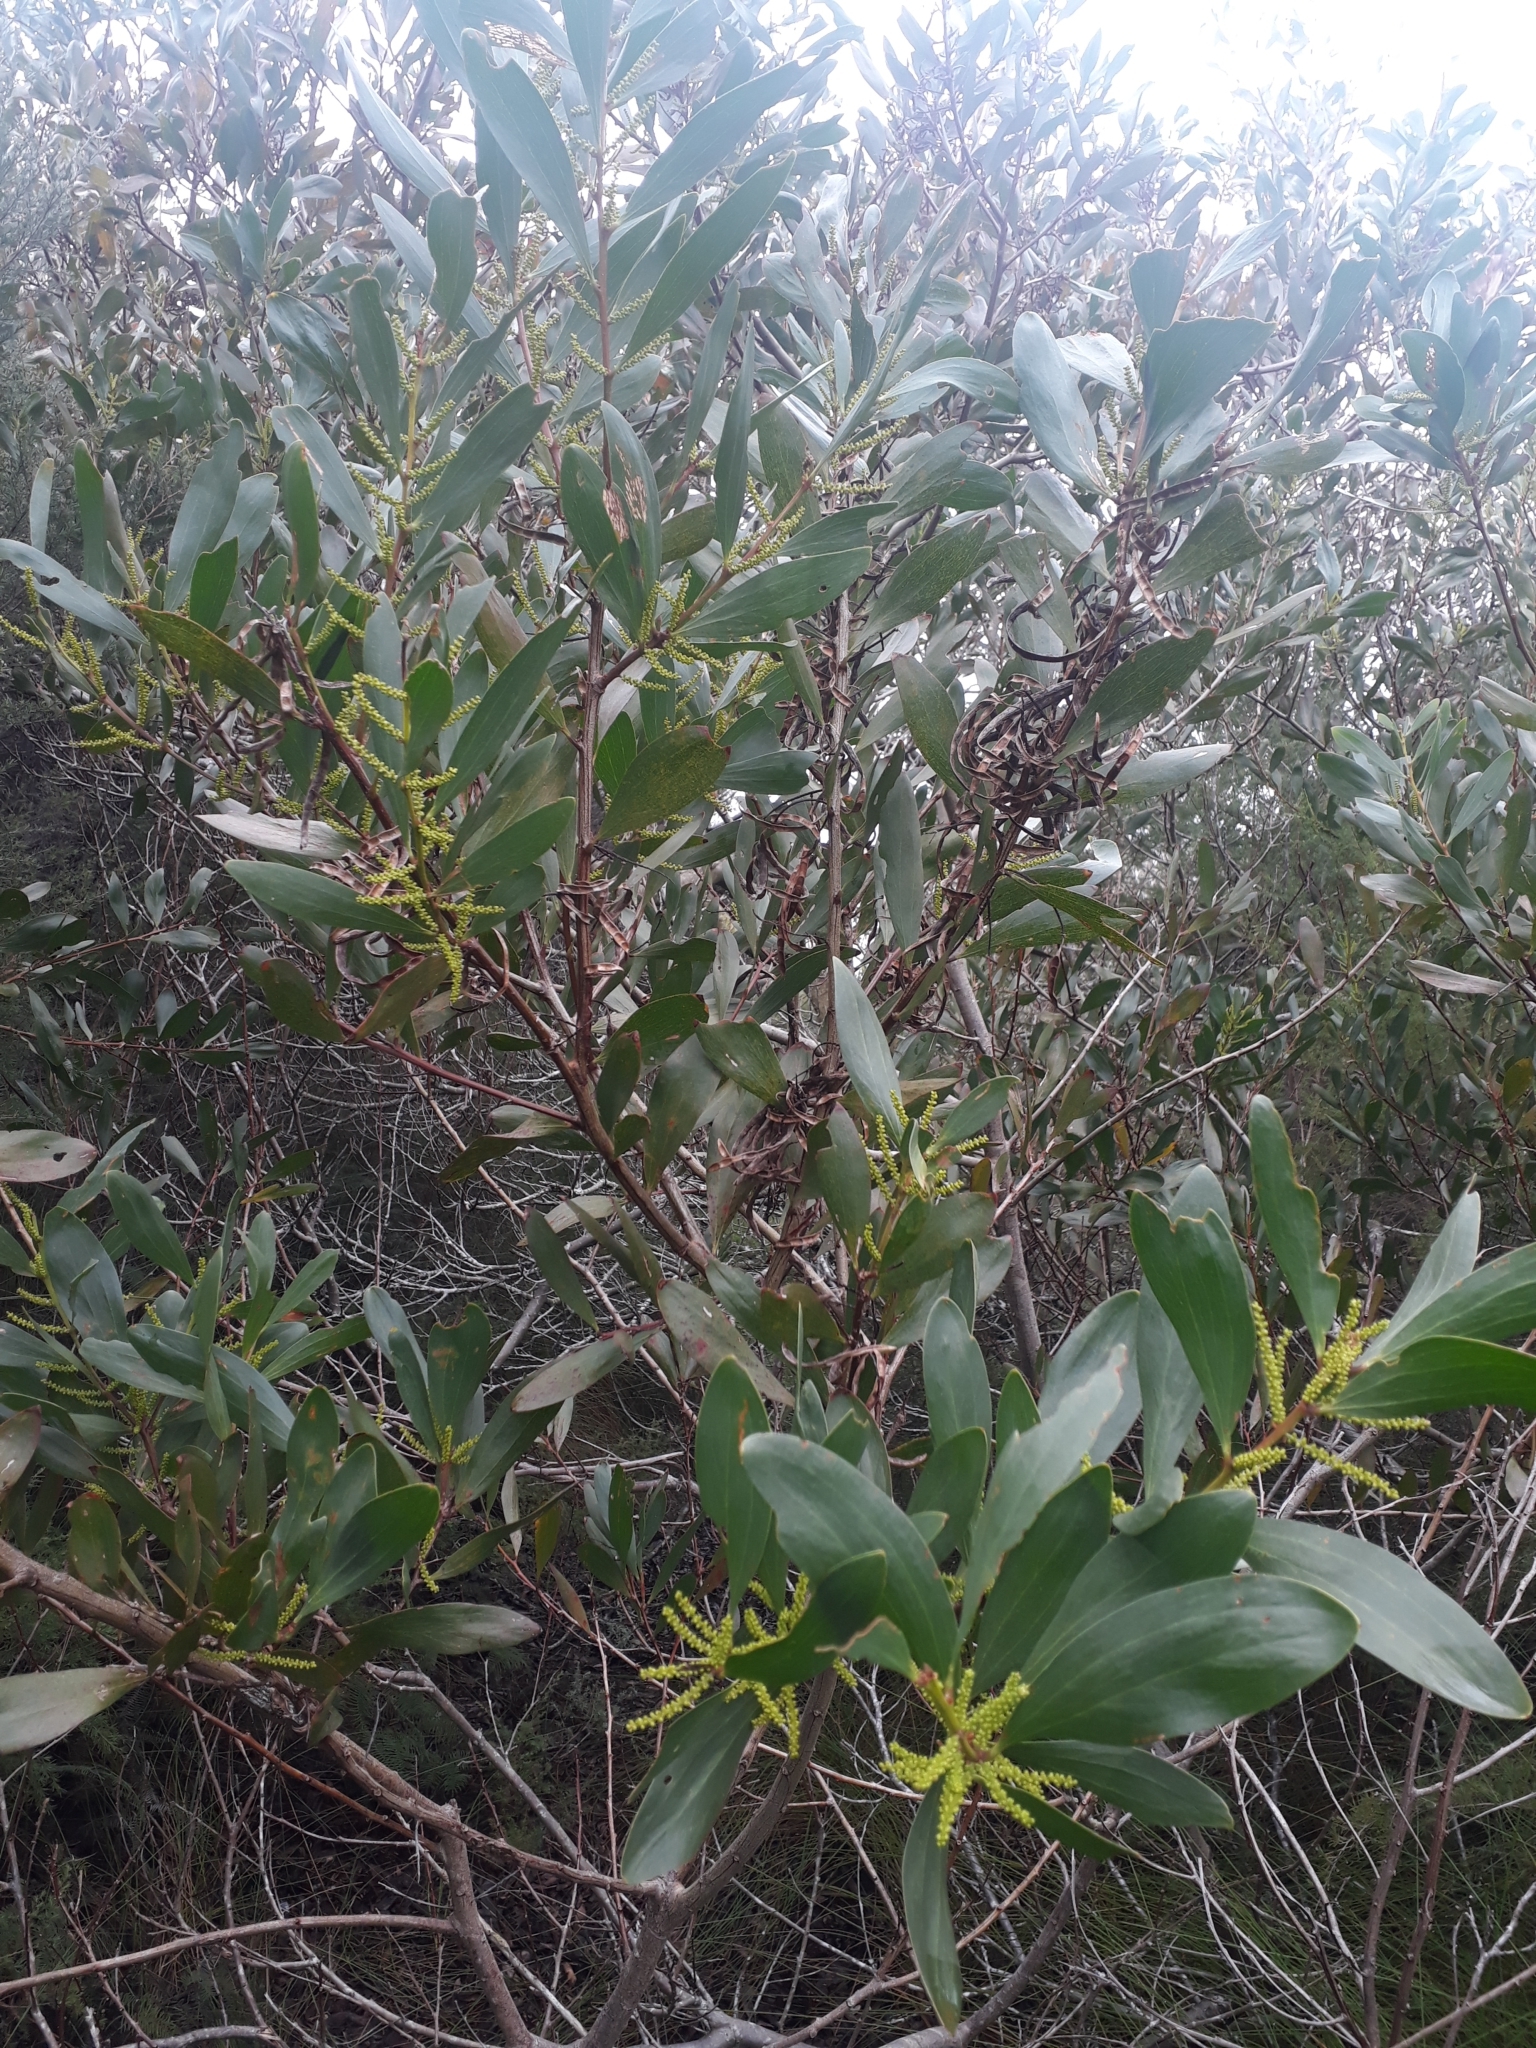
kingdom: Plantae
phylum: Tracheophyta
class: Magnoliopsida
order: Fabales
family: Fabaceae
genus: Acacia
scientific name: Acacia longifolia
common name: Sydney golden wattle
